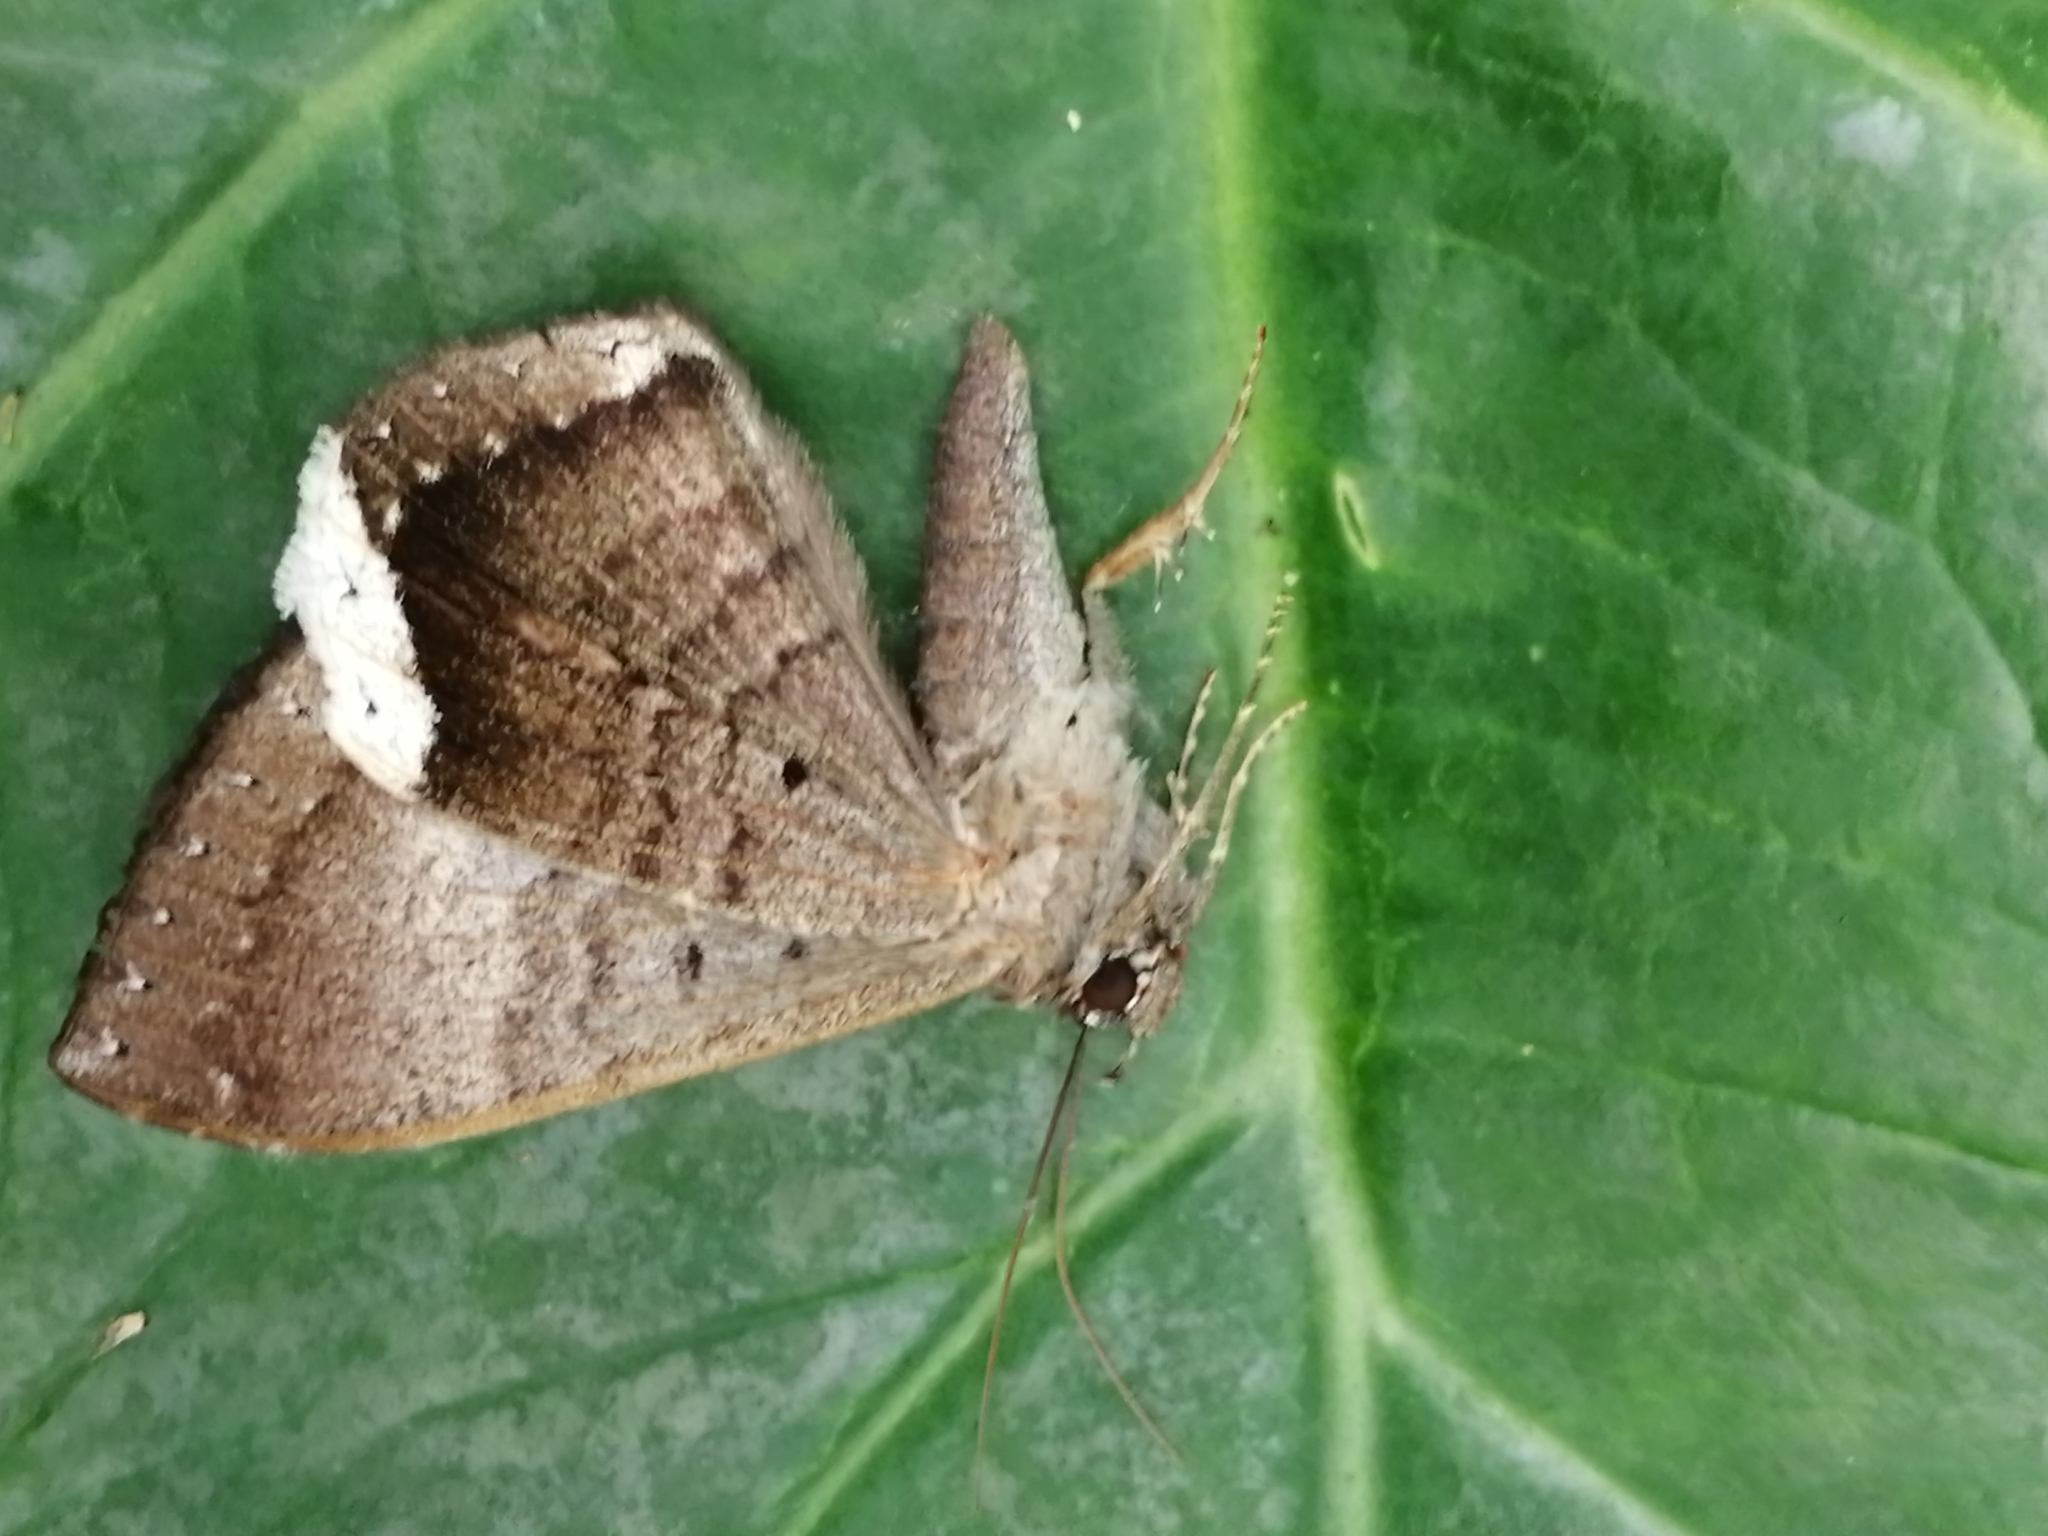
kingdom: Animalia
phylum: Arthropoda
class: Insecta
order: Lepidoptera
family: Erebidae
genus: Hemeroblemma
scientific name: Hemeroblemma mexicana
